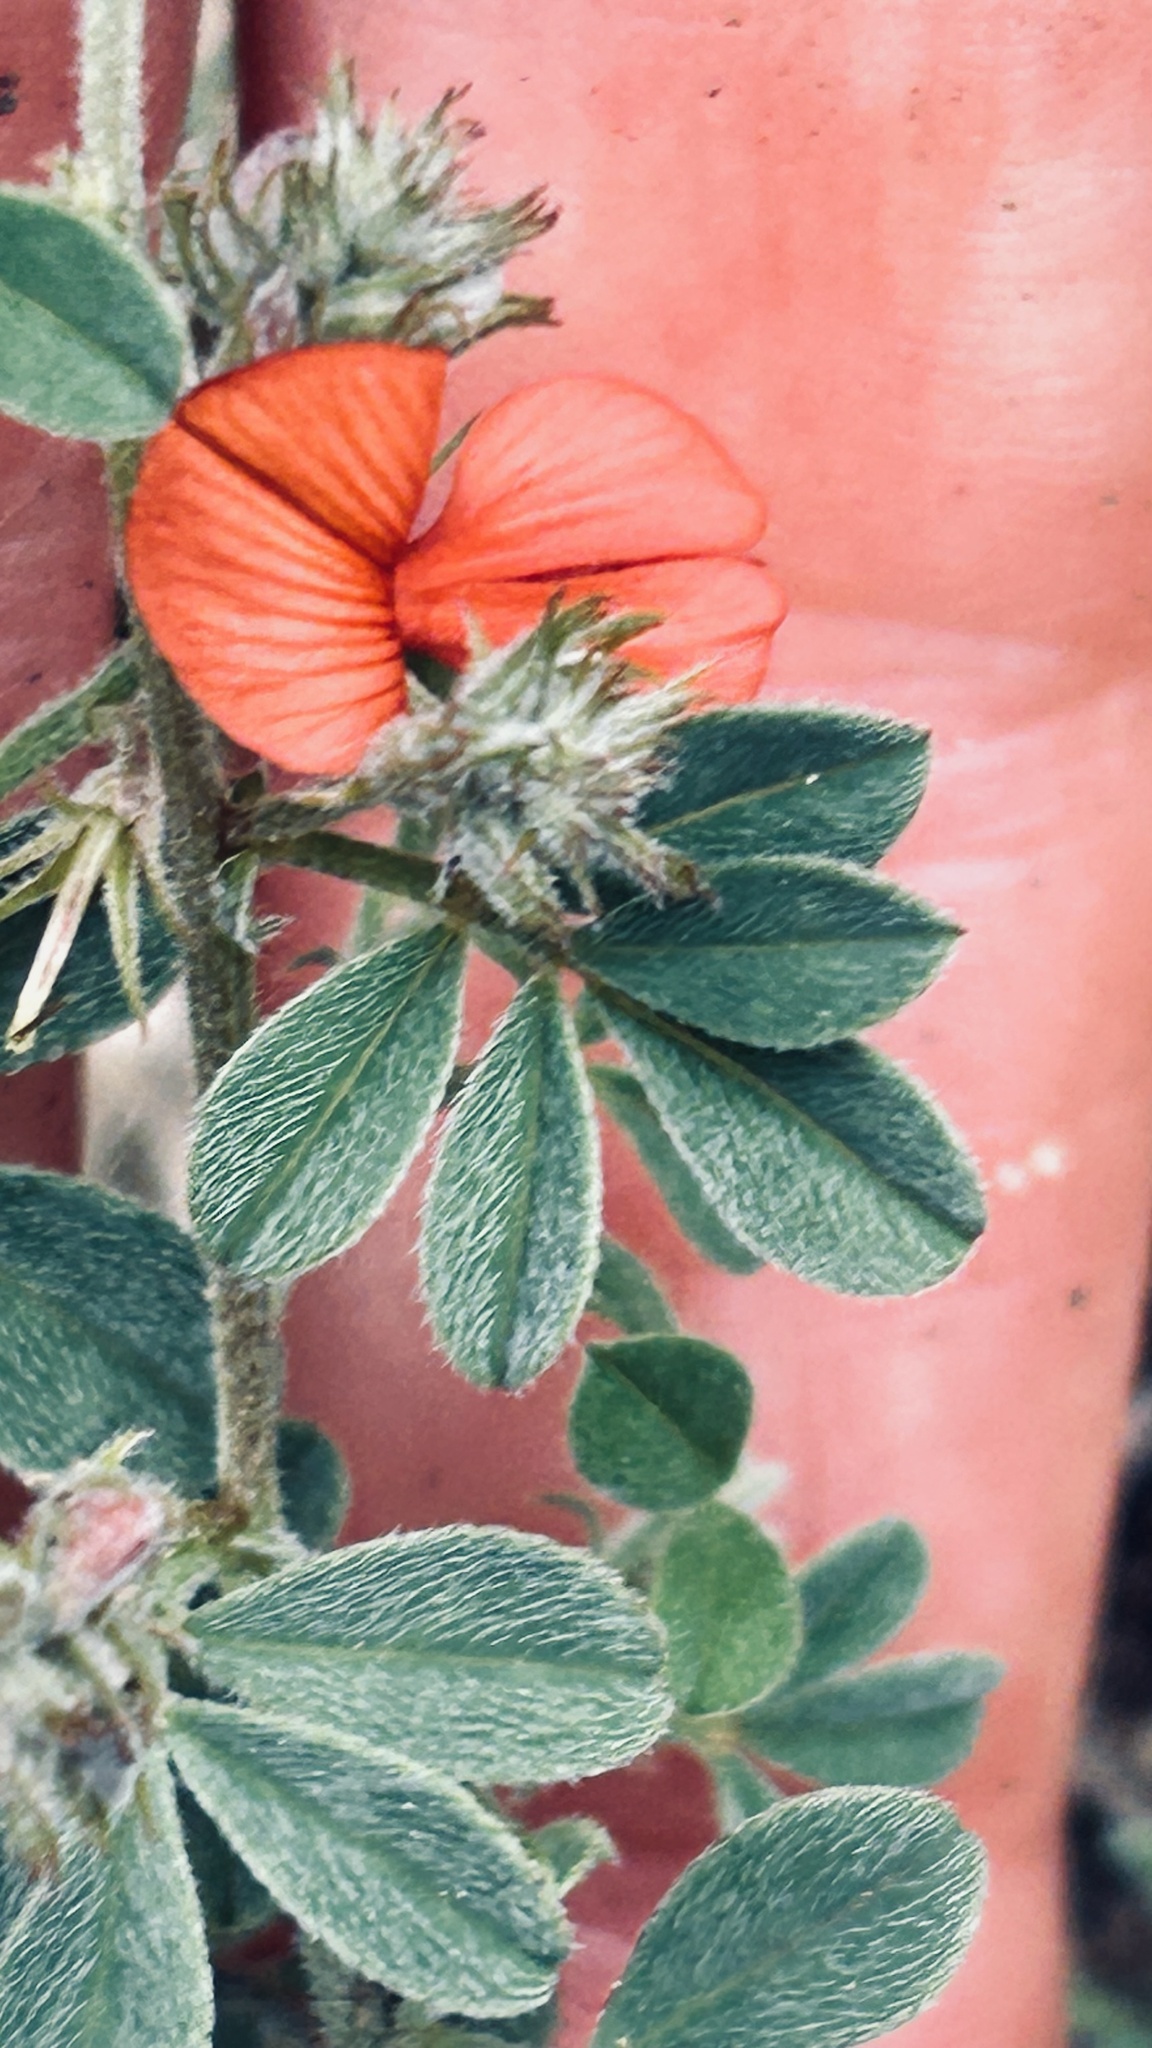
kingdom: Plantae
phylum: Tracheophyta
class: Magnoliopsida
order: Fabales
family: Fabaceae
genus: Indigofera
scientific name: Indigofera priorii
